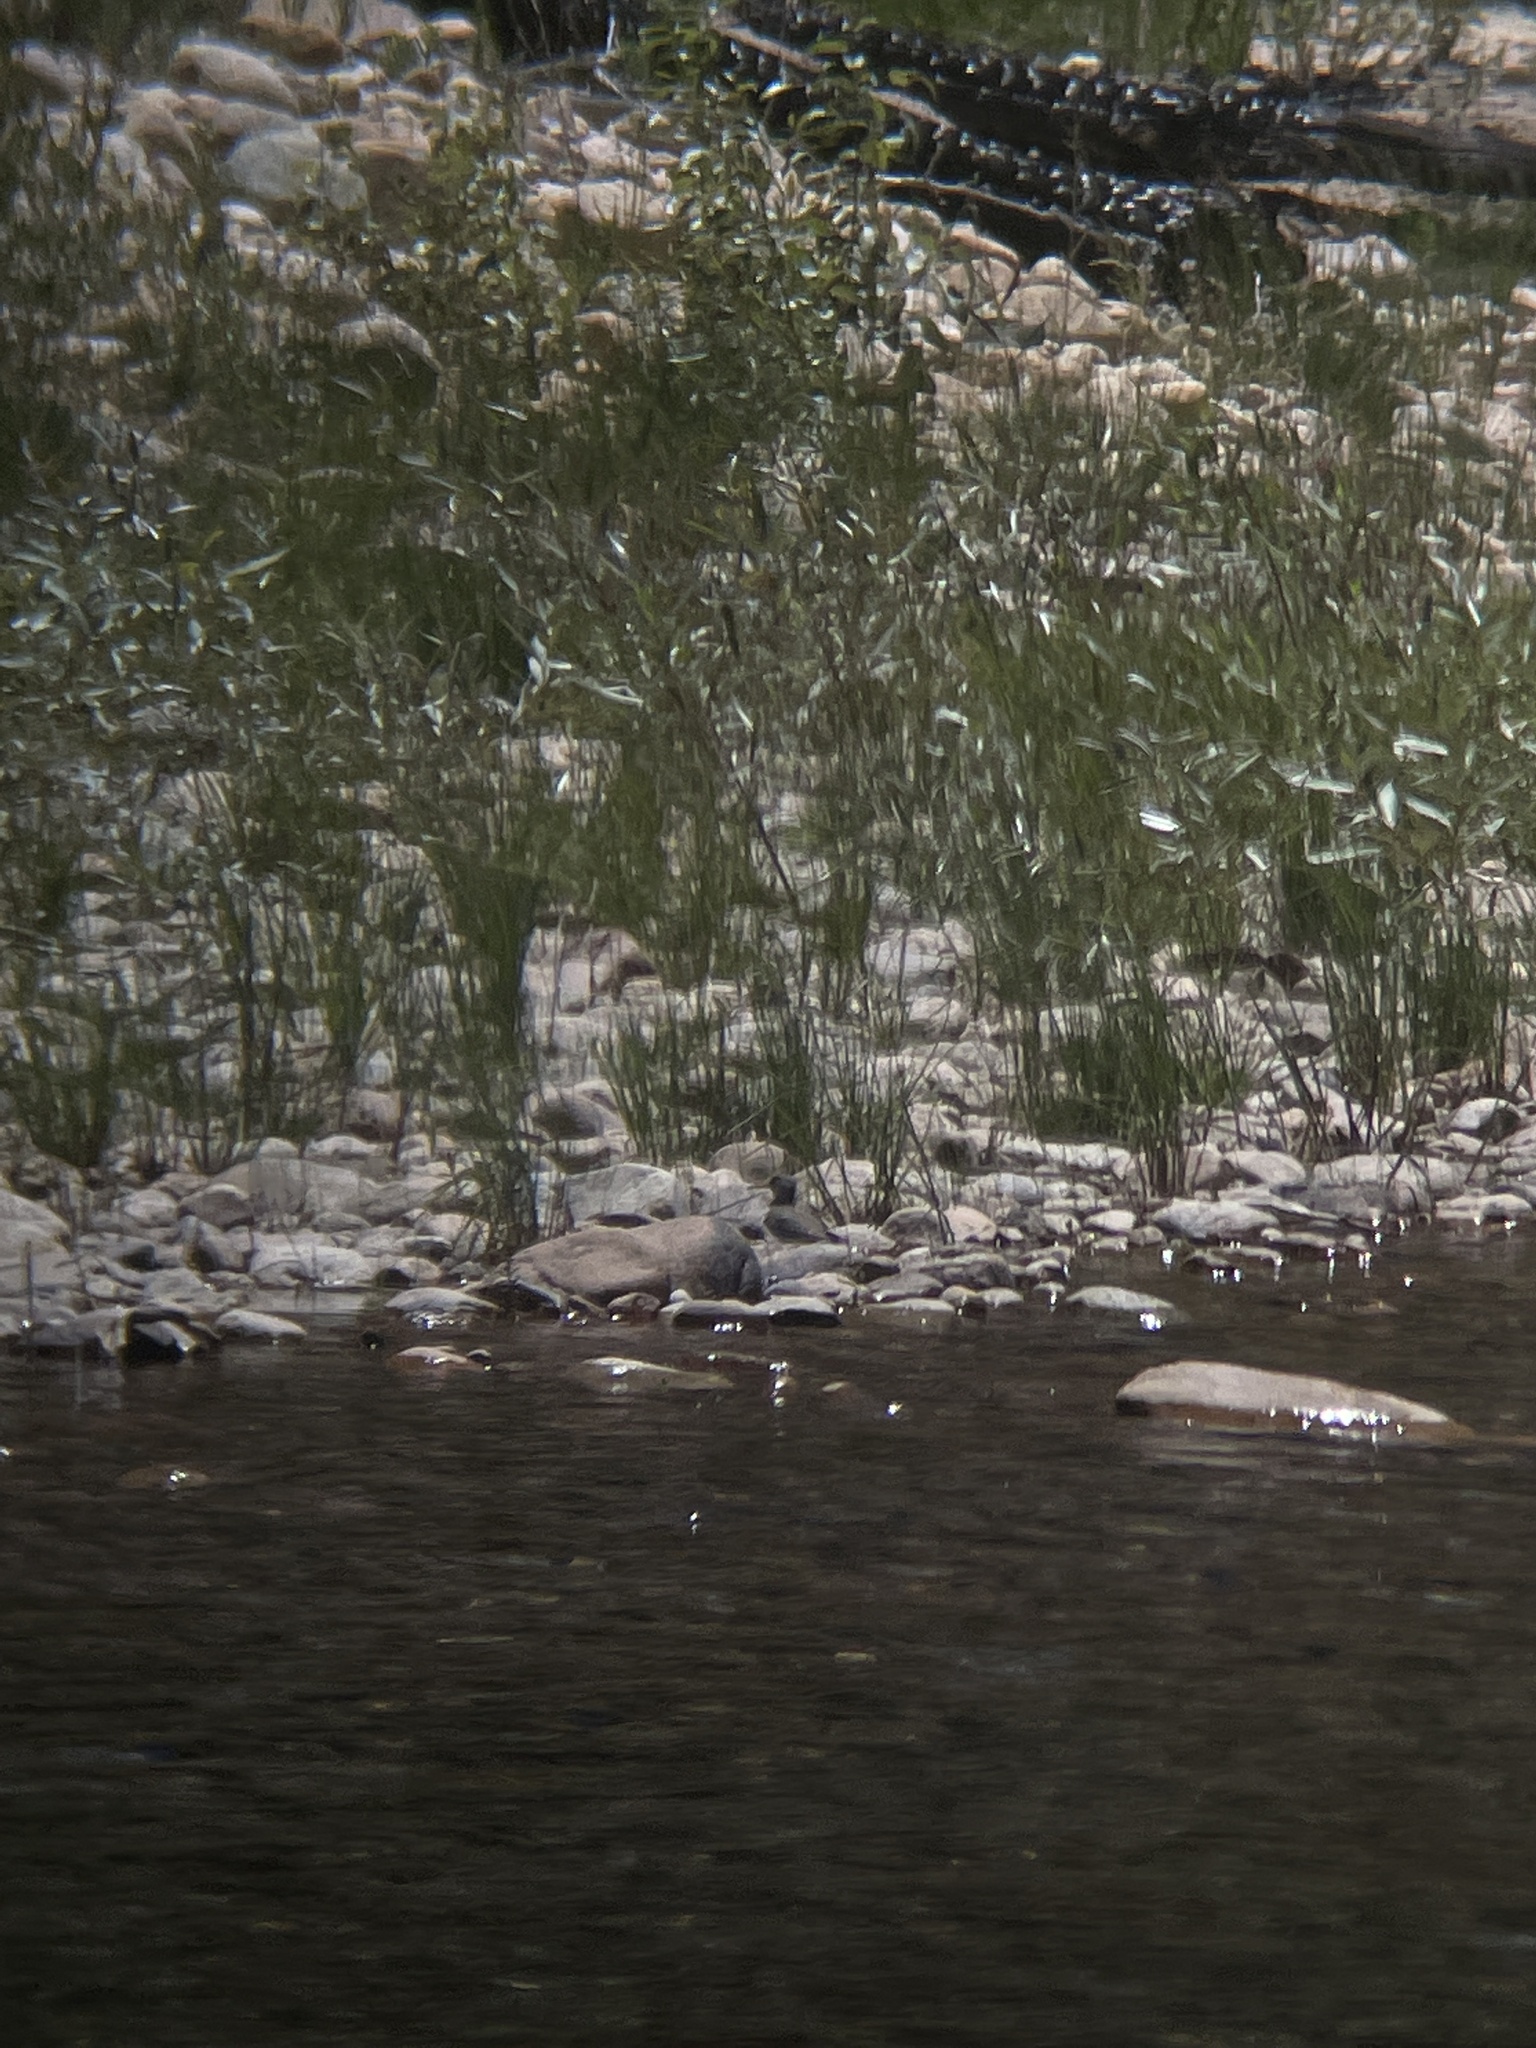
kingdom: Animalia
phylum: Chordata
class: Aves
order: Charadriiformes
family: Scolopacidae
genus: Actitis
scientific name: Actitis macularius
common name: Spotted sandpiper
